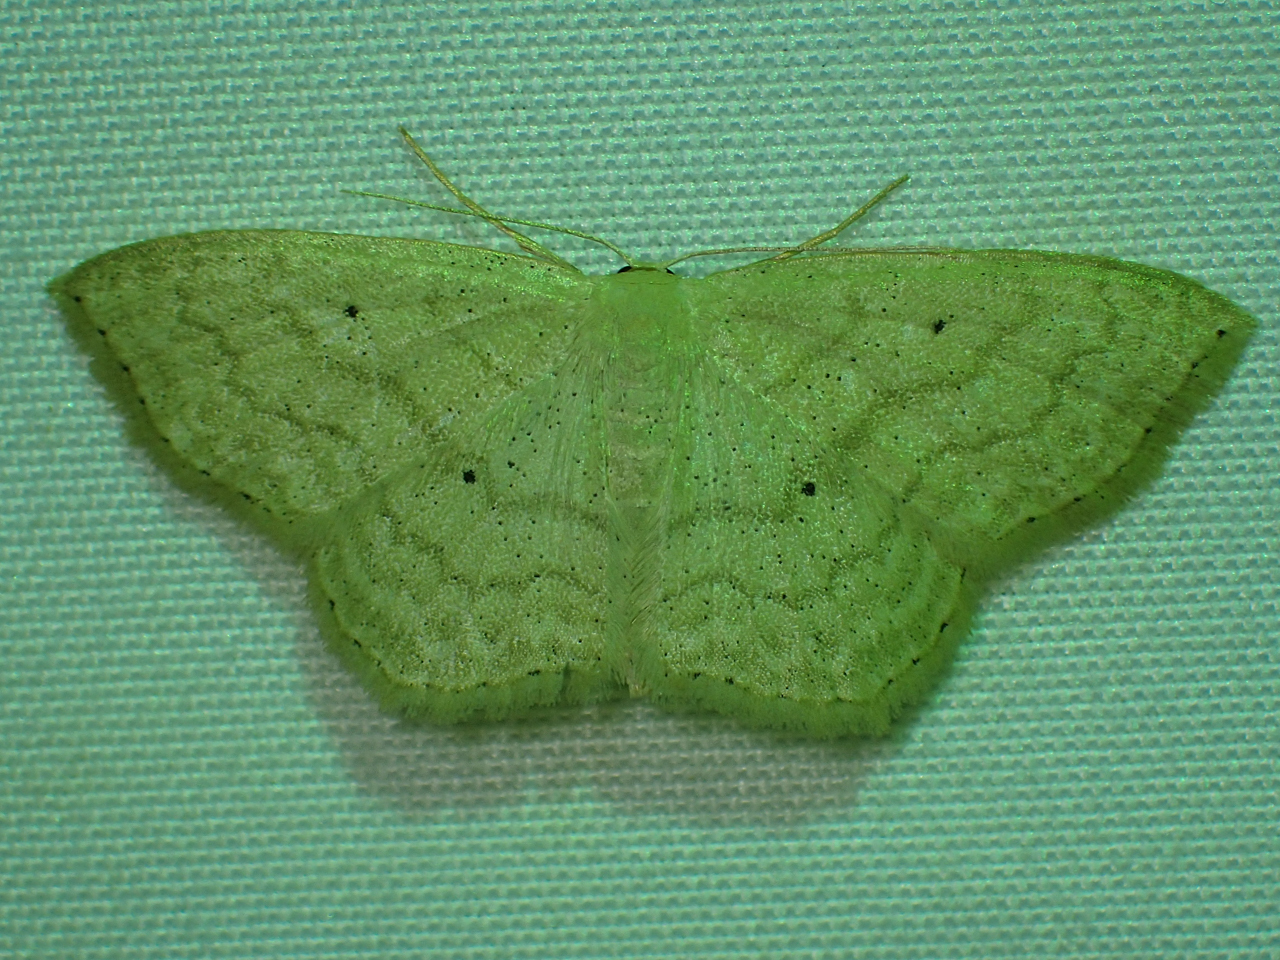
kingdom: Animalia
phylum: Arthropoda
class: Insecta
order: Lepidoptera
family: Geometridae
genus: Scopula
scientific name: Scopula limboundata
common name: Large lace border
